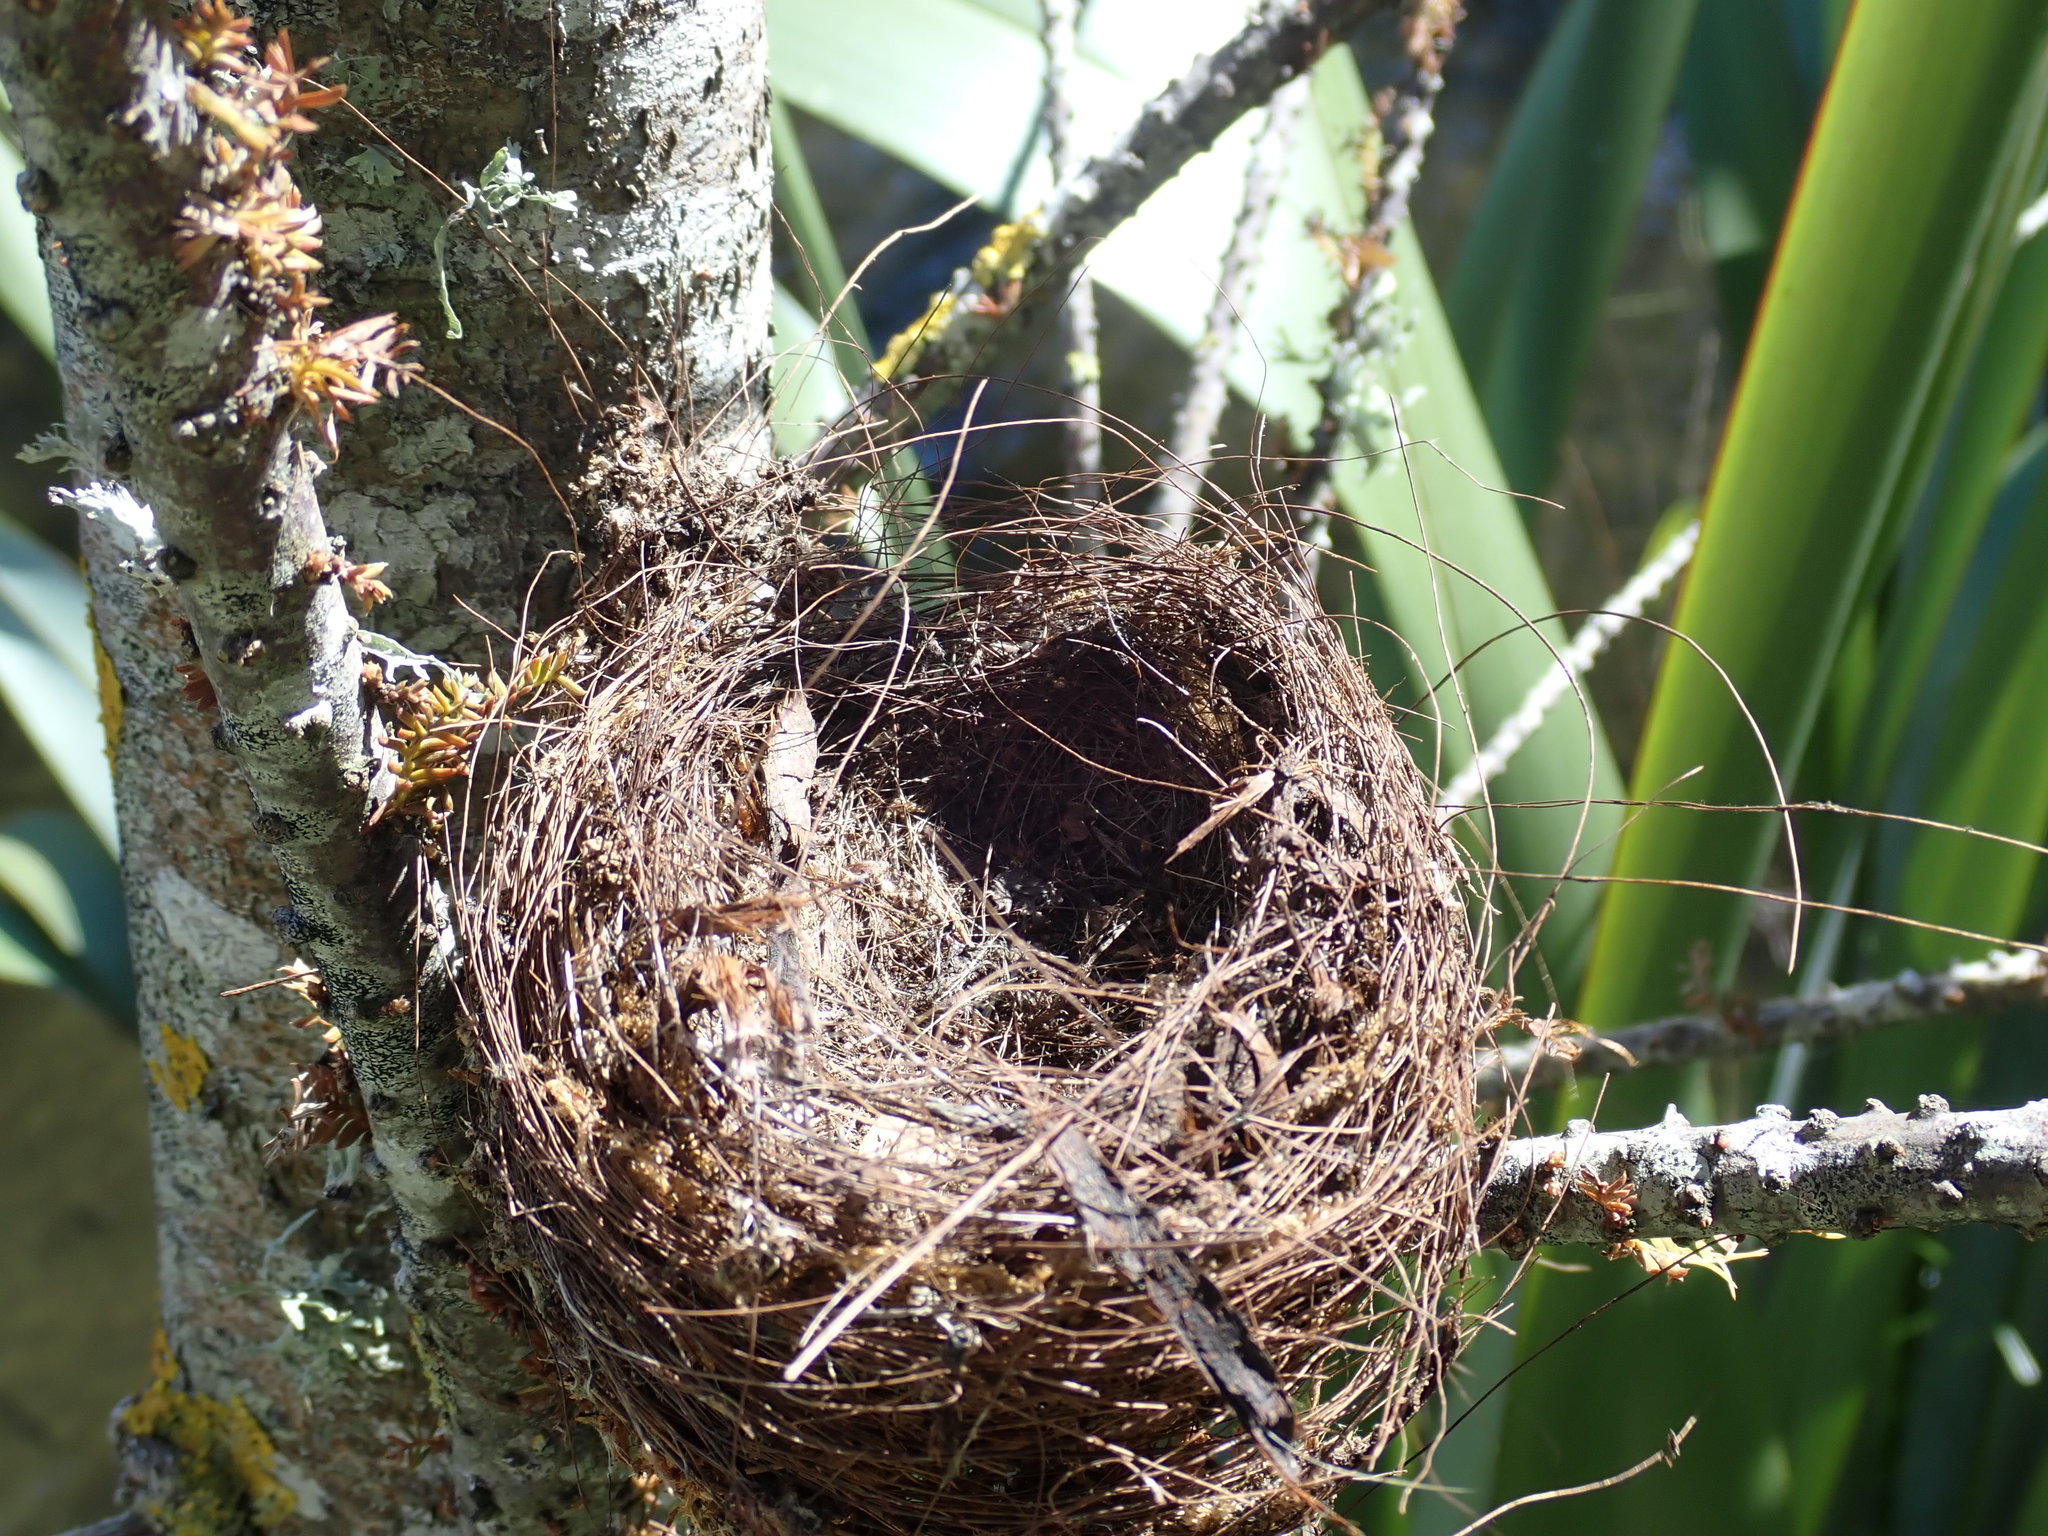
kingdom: Animalia
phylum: Chordata
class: Aves
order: Passeriformes
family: Zosteropidae
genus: Zosterops
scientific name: Zosterops lateralis
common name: Silvereye
